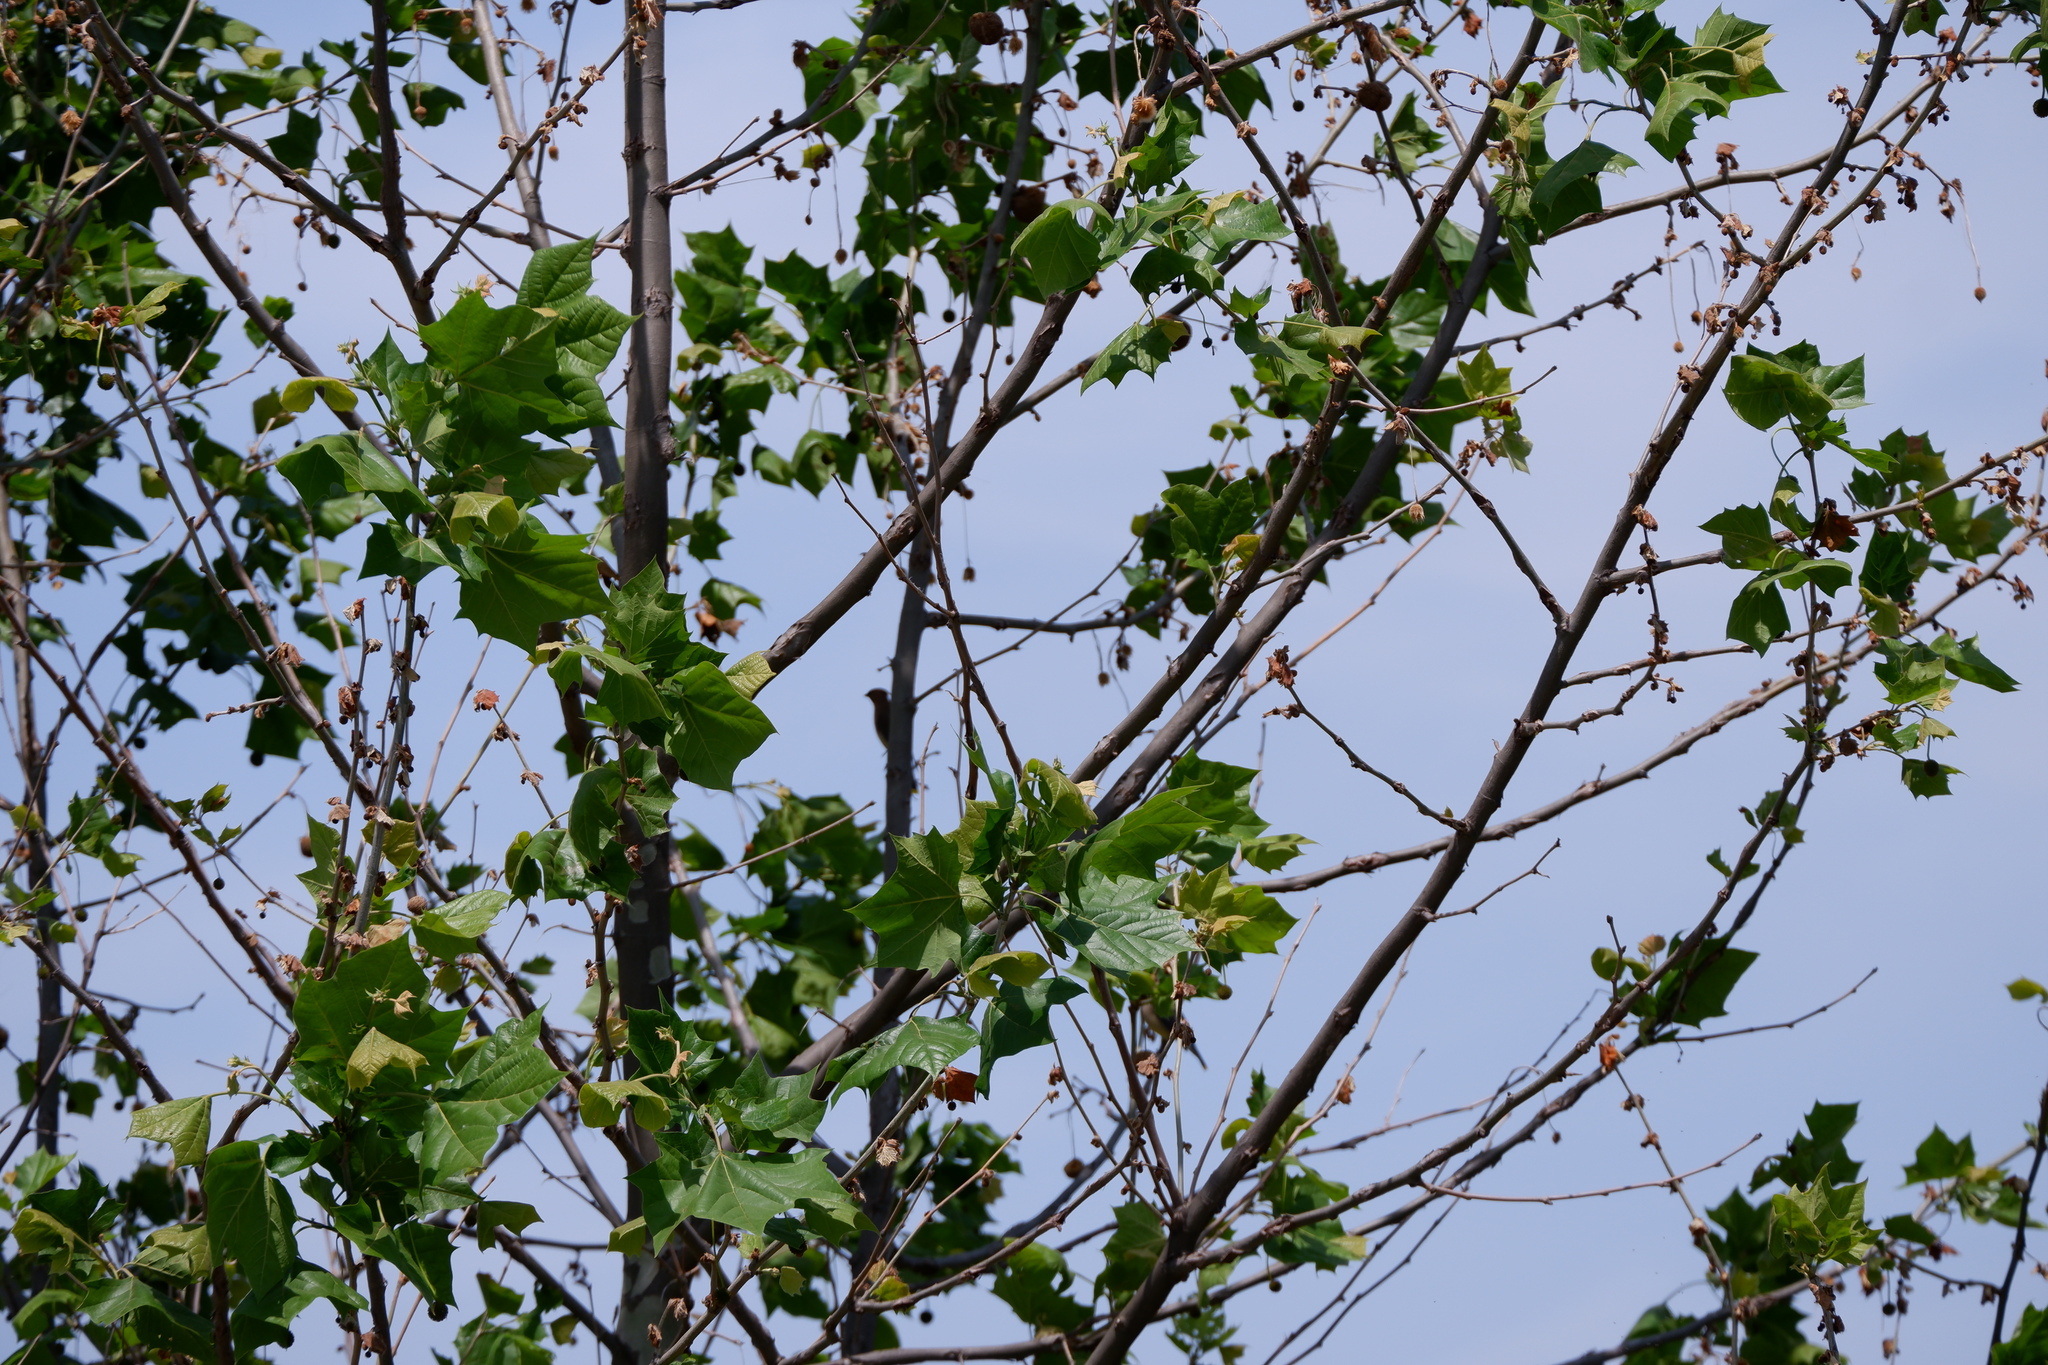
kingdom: Plantae
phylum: Tracheophyta
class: Magnoliopsida
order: Proteales
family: Platanaceae
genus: Platanus
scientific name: Platanus occidentalis
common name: American sycamore
